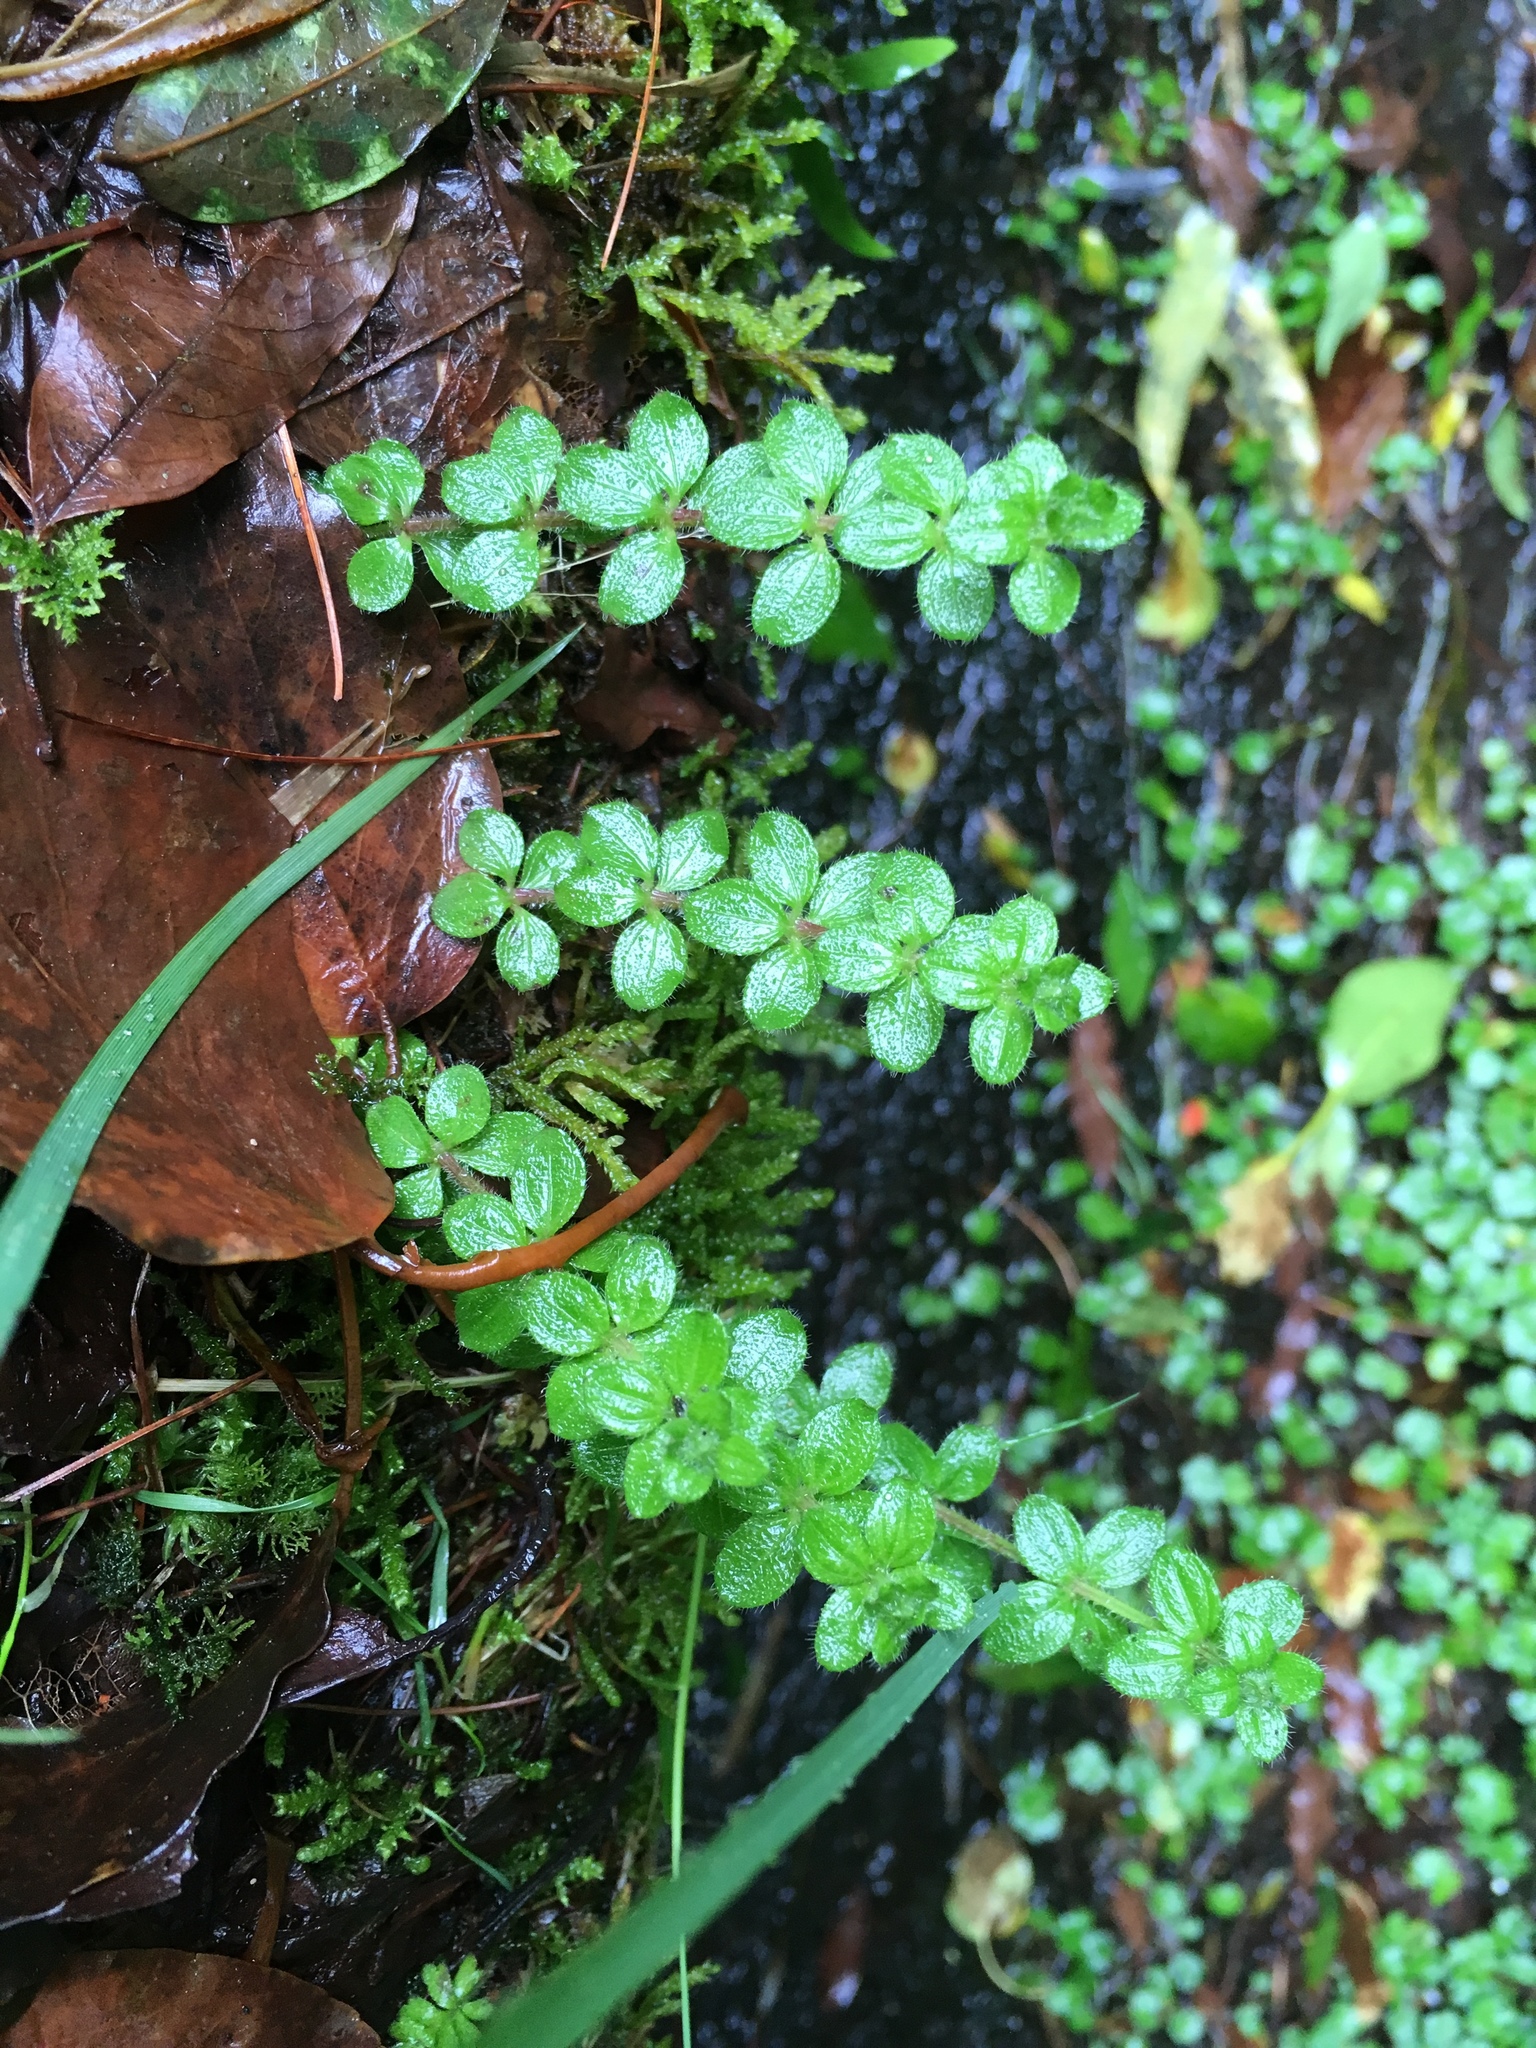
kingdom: Plantae
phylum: Tracheophyta
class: Magnoliopsida
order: Gentianales
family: Rubiaceae
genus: Galium
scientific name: Galium formosense
